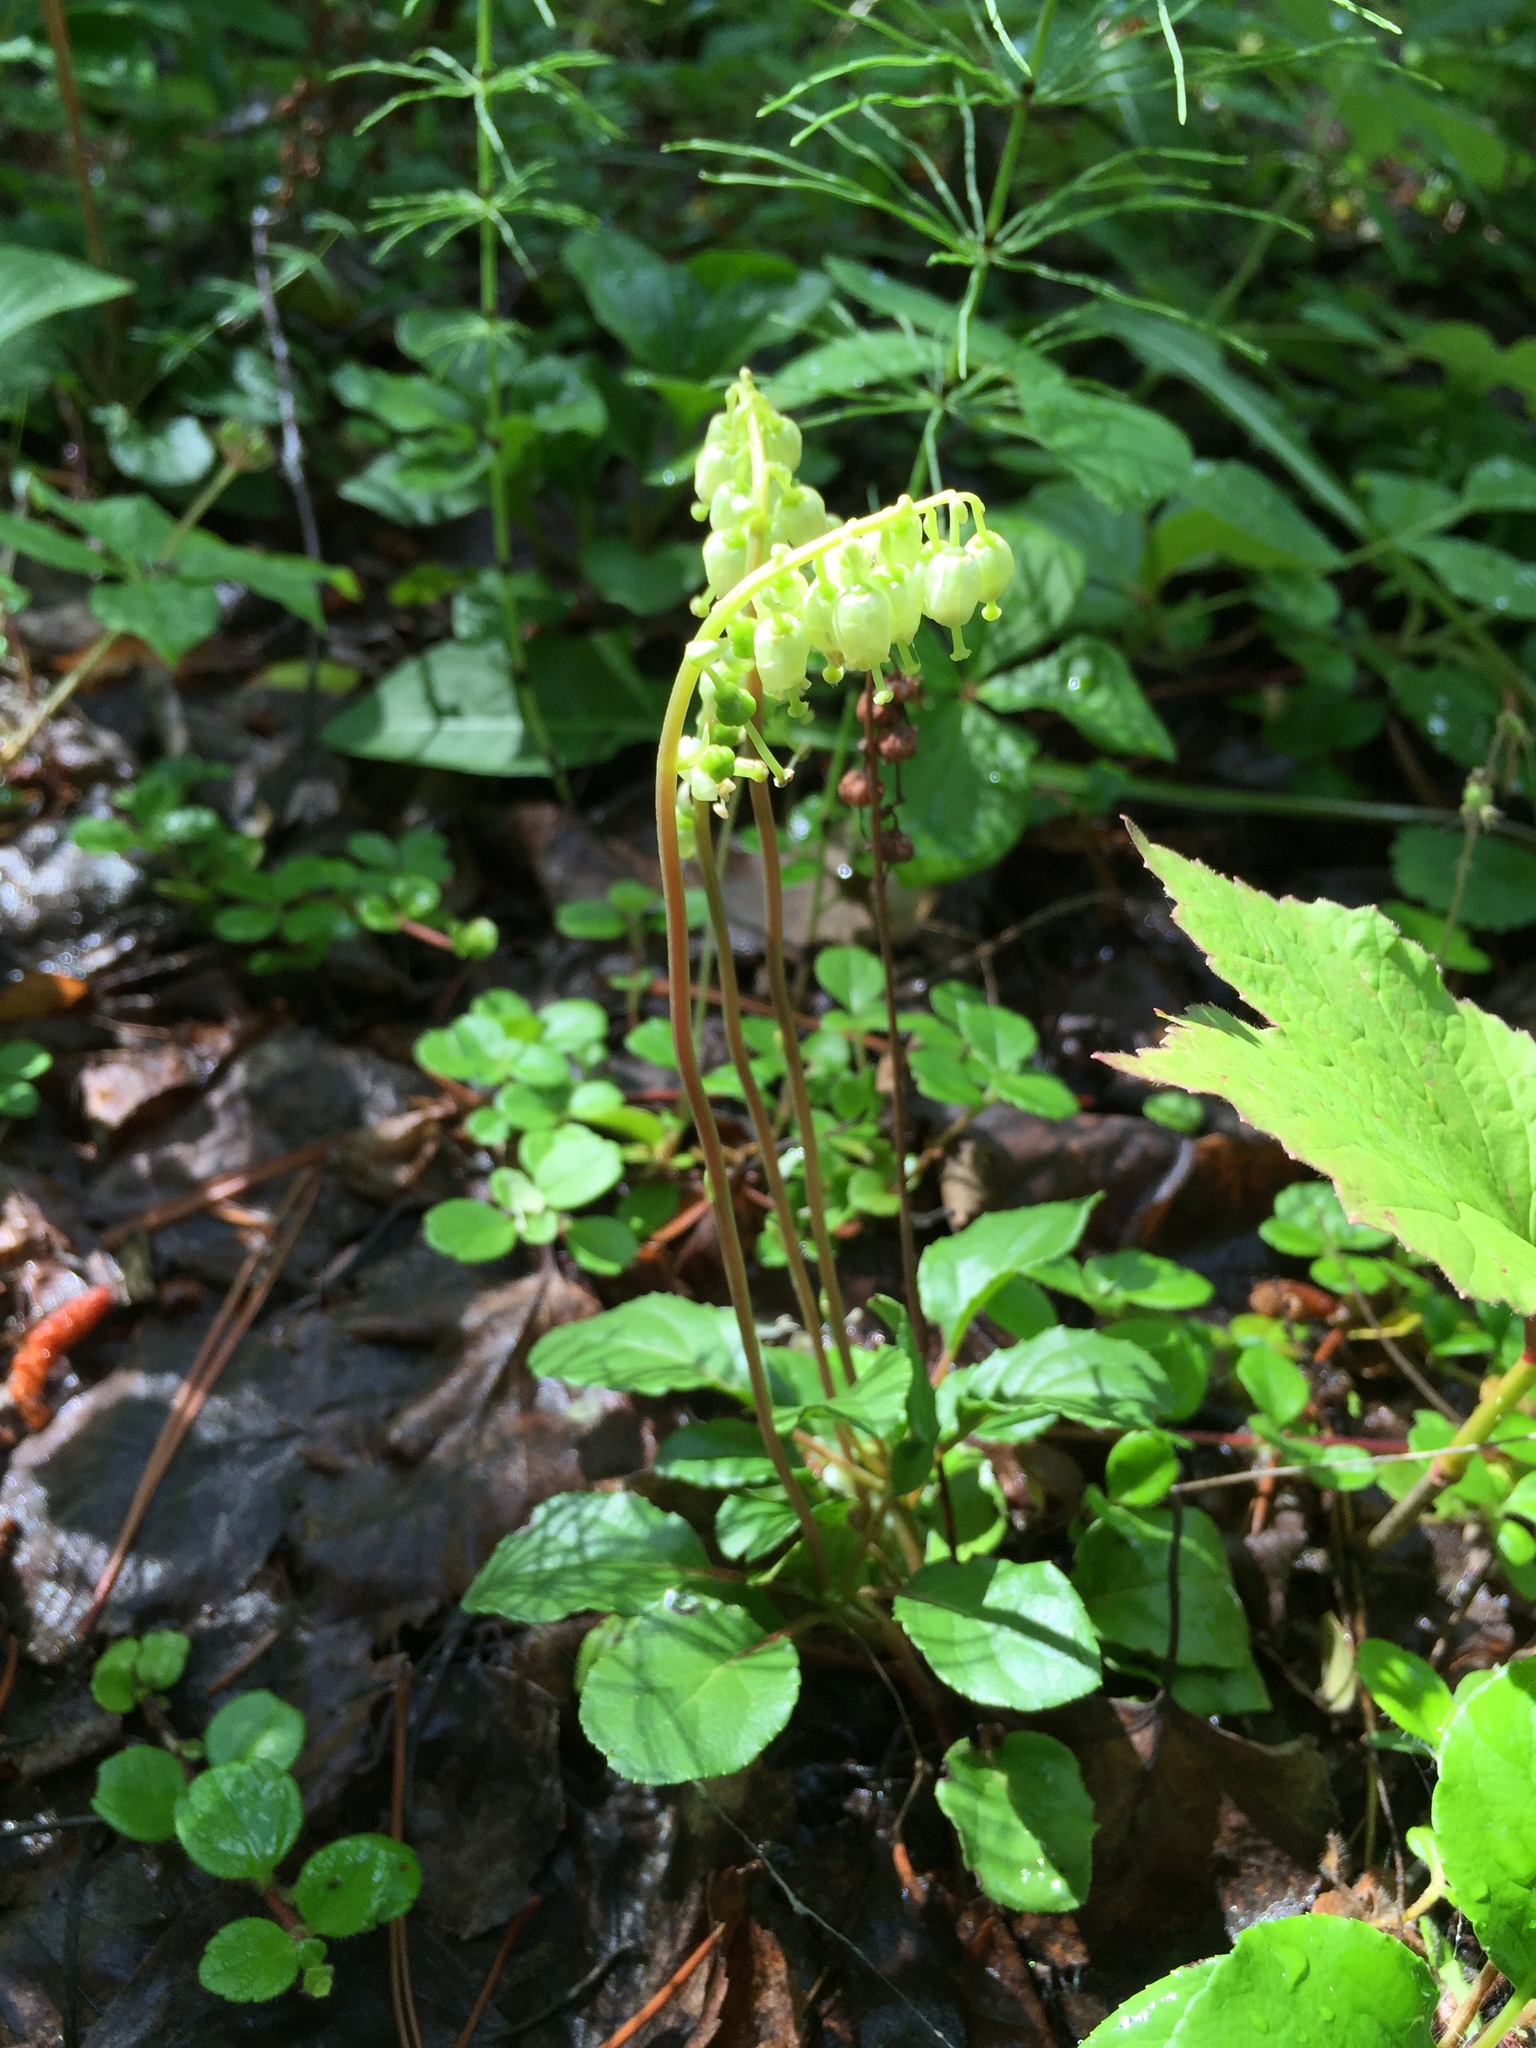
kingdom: Plantae
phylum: Tracheophyta
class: Magnoliopsida
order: Ericales
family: Ericaceae
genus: Orthilia
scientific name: Orthilia secunda
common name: One-sided orthilia
